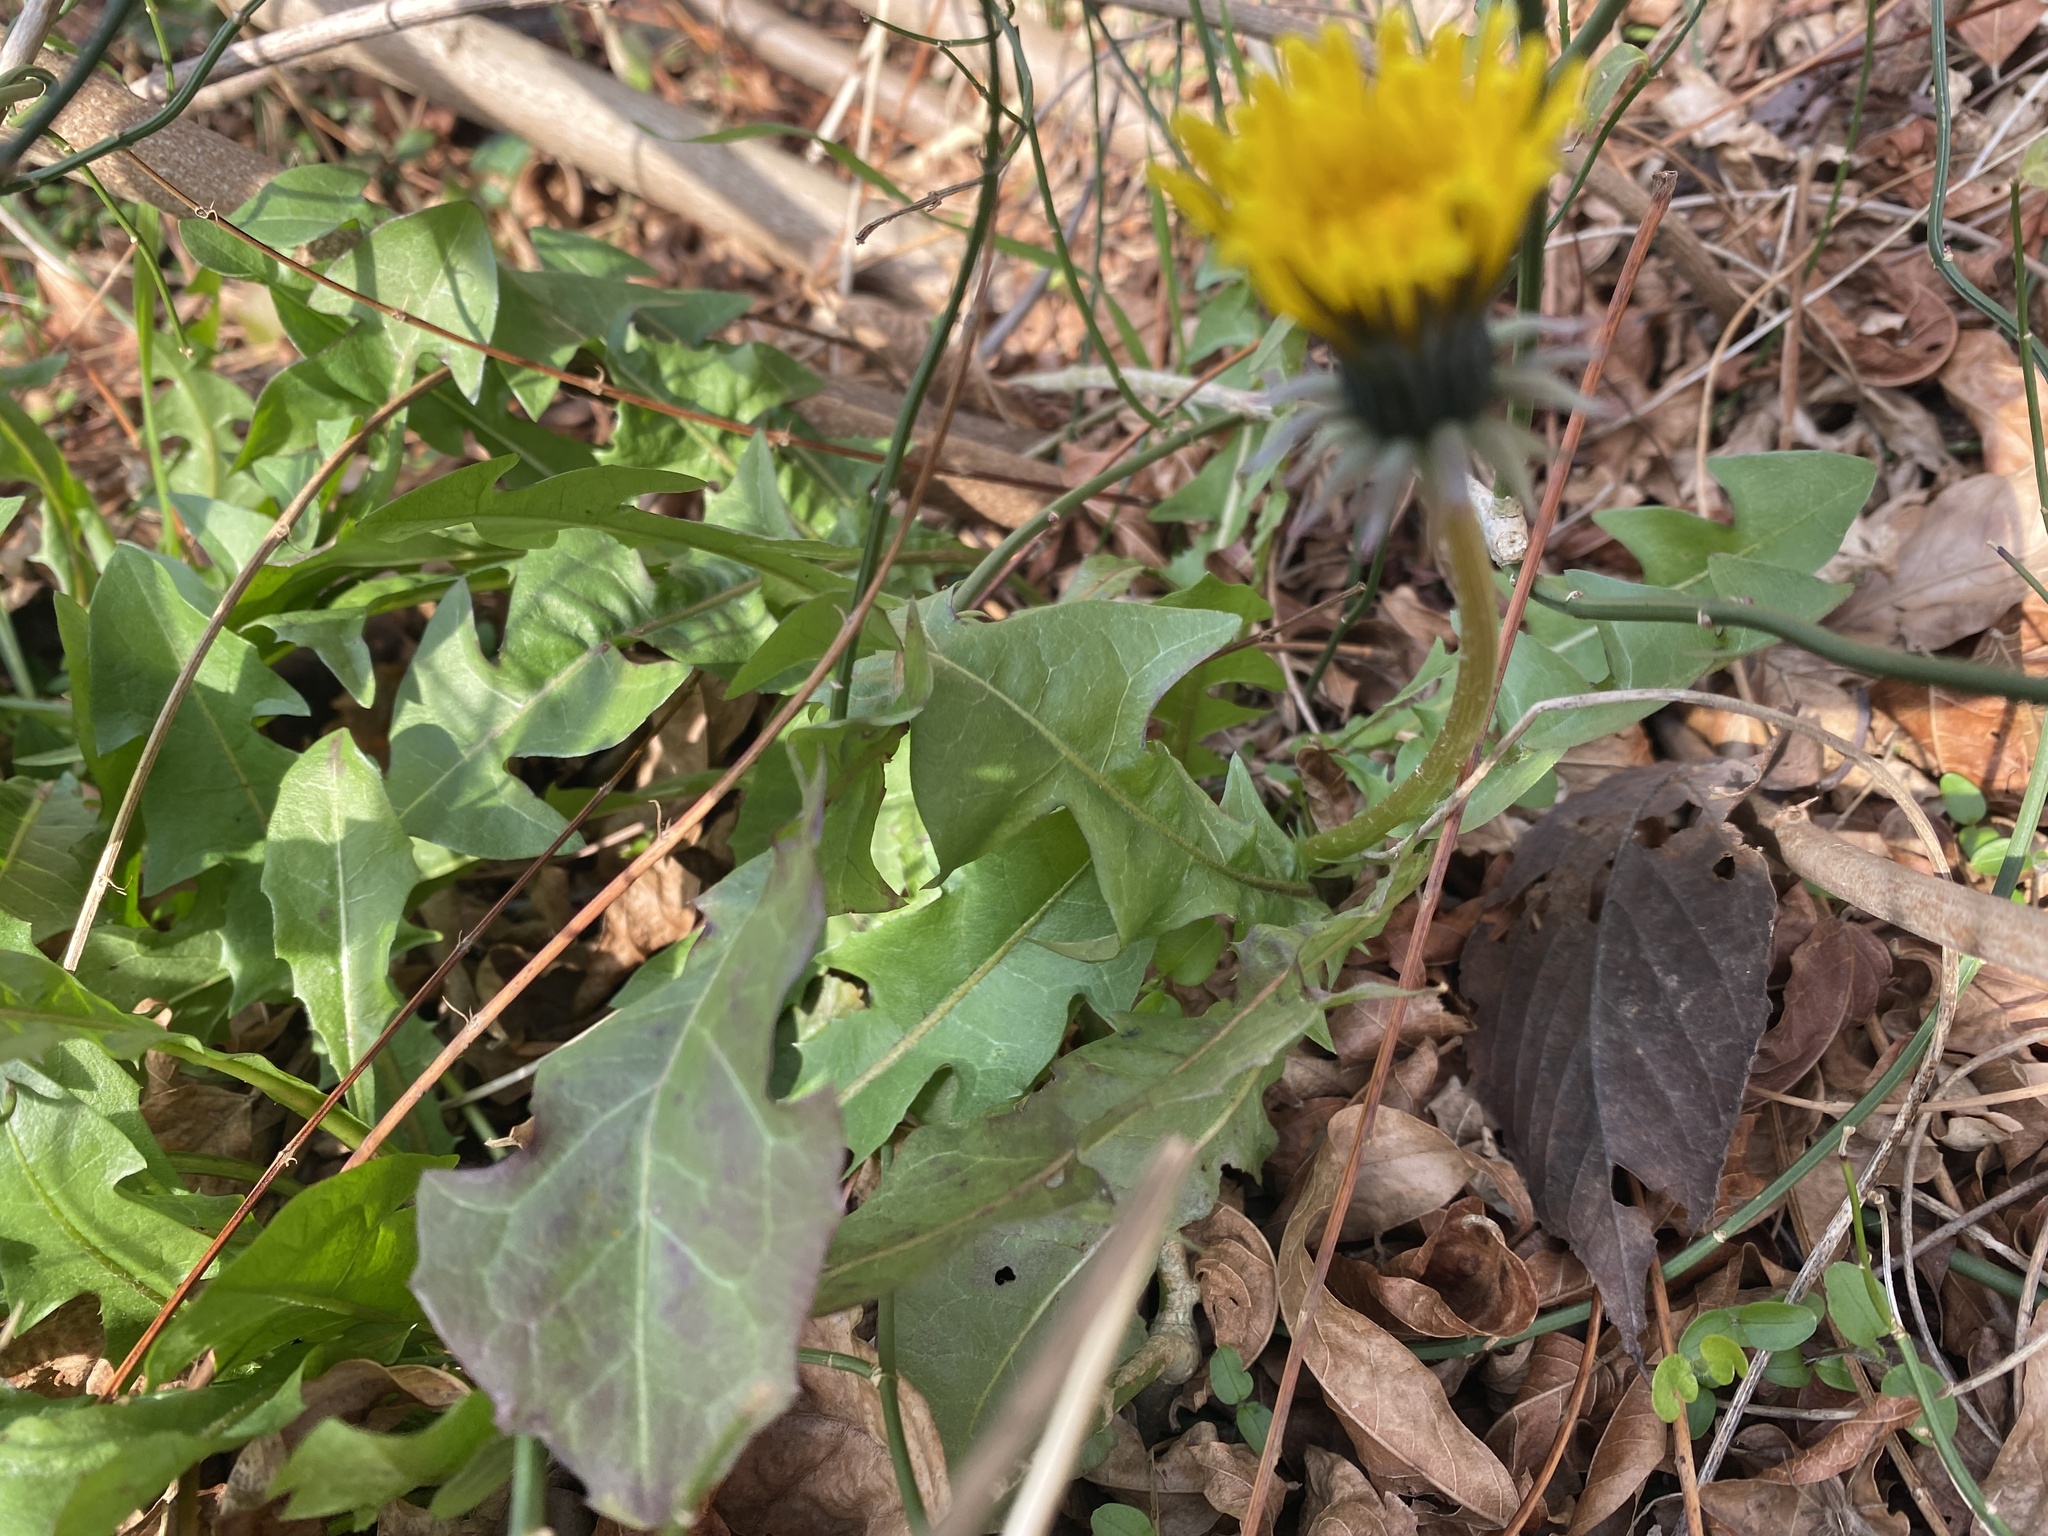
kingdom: Plantae
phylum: Tracheophyta
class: Magnoliopsida
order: Asterales
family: Asteraceae
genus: Taraxacum
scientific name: Taraxacum officinale
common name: Common dandelion
